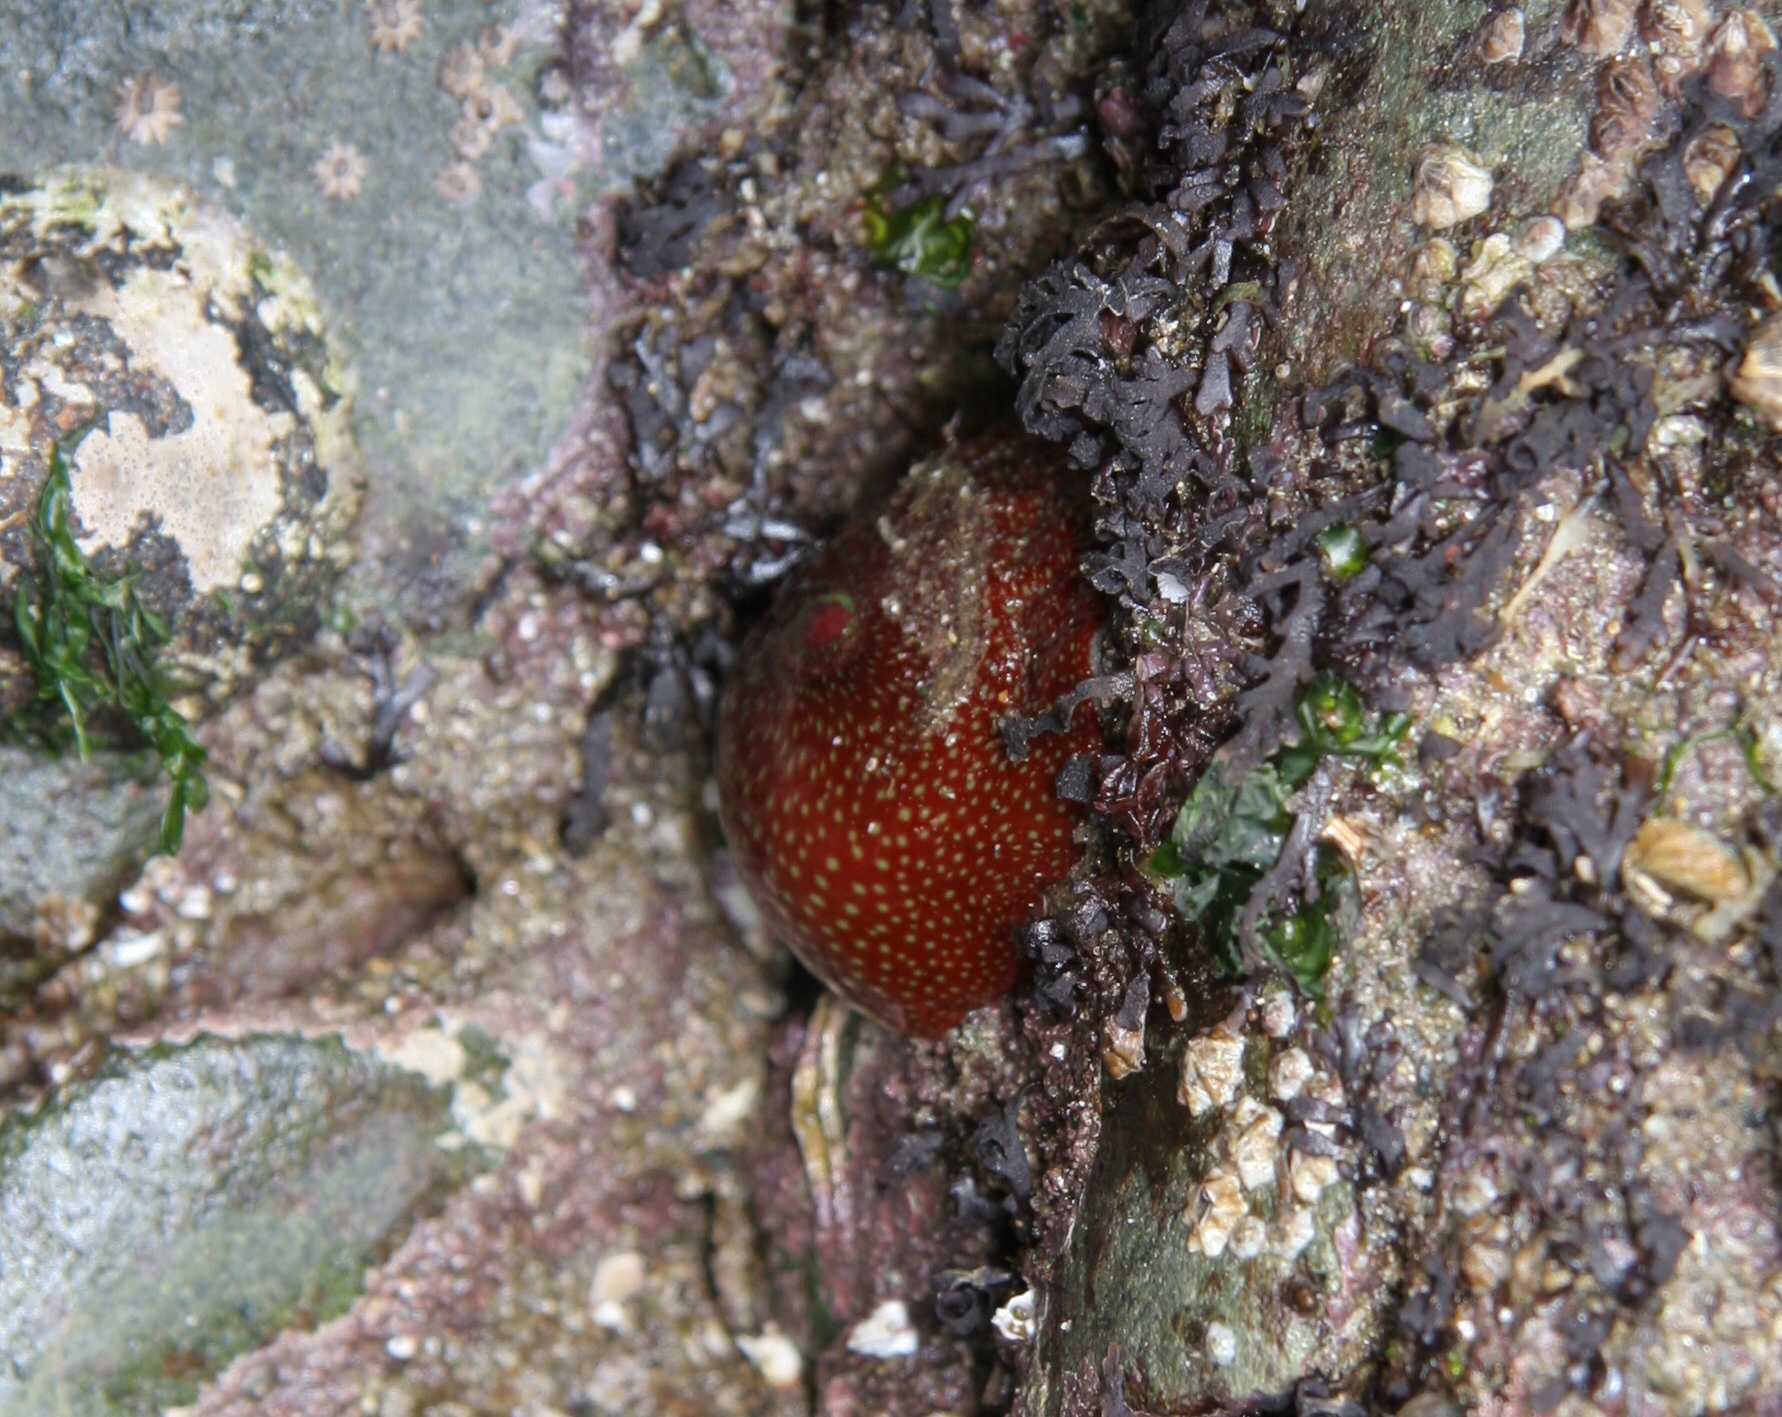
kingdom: Animalia
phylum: Cnidaria
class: Anthozoa
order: Actiniaria
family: Actiniidae
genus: Actinia
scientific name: Actinia fragacea
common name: Strawberry anemone
